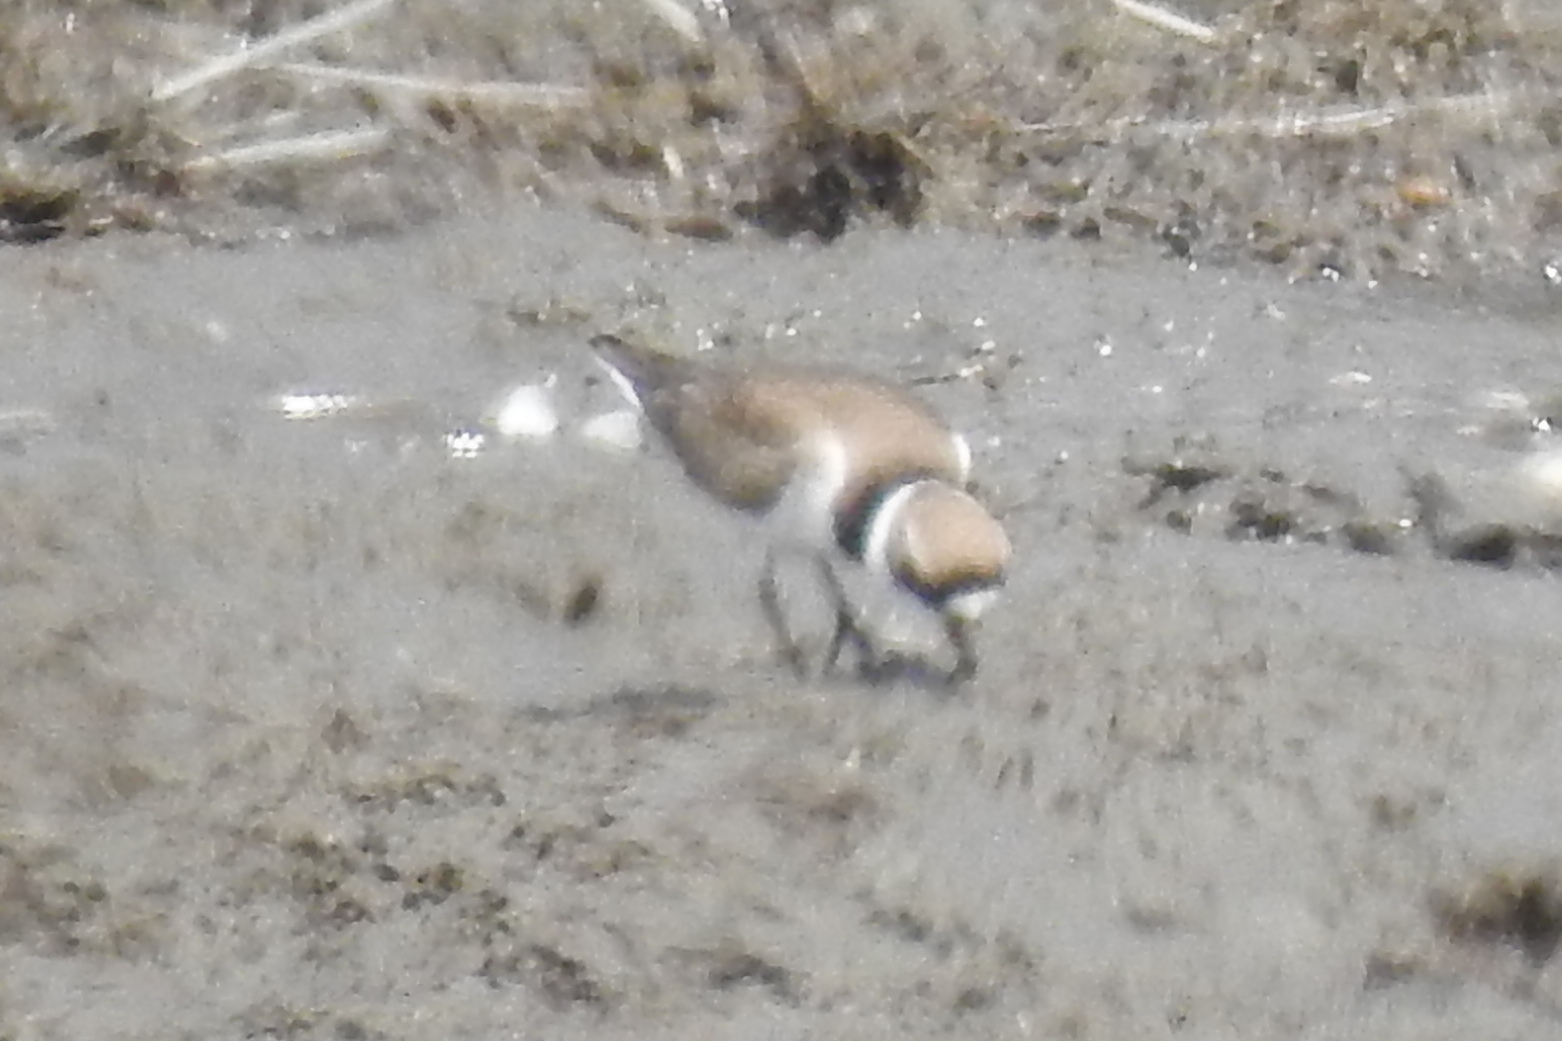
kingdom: Animalia
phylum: Chordata
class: Aves
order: Charadriiformes
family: Charadriidae
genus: Charadrius
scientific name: Charadrius semipalmatus
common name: Semipalmated plover
